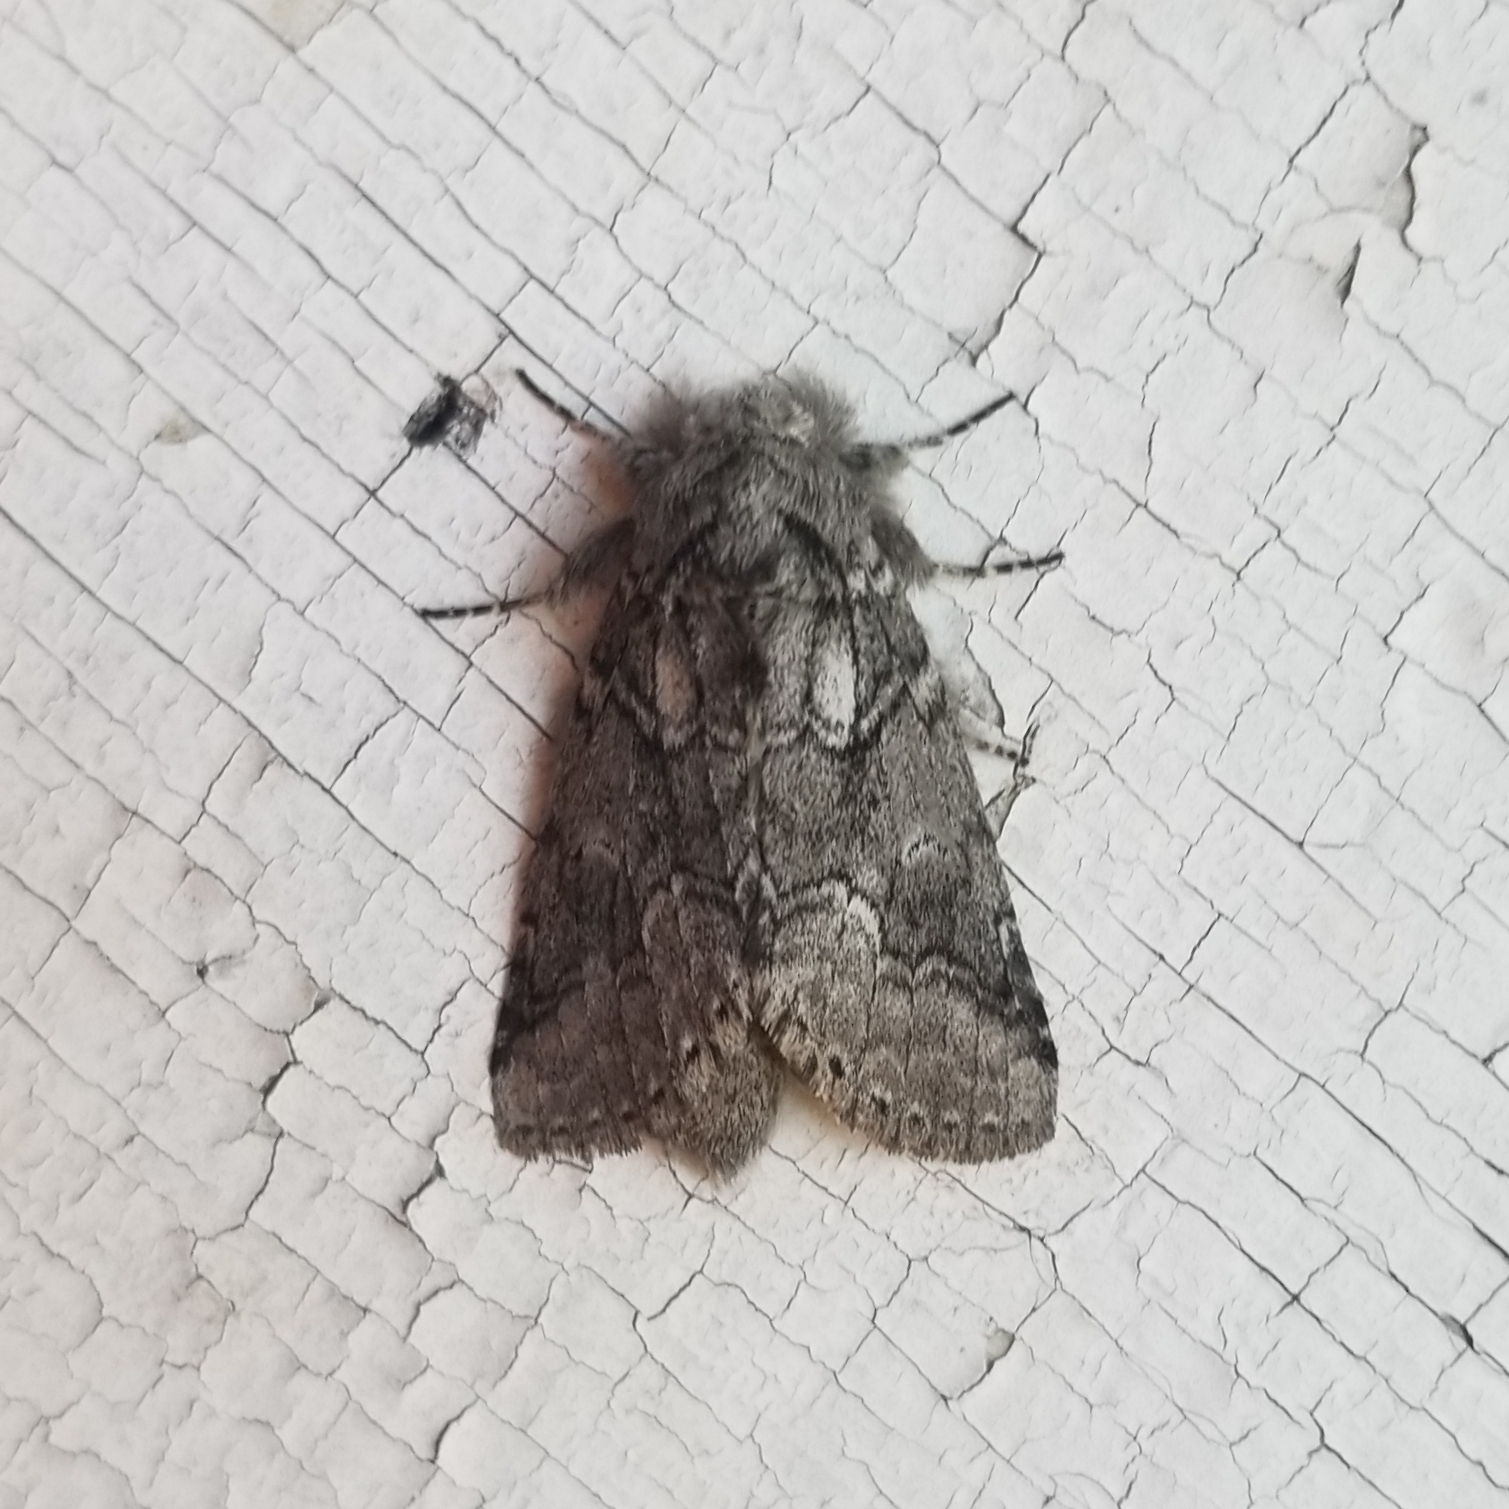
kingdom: Animalia
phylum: Arthropoda
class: Insecta
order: Lepidoptera
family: Notodontidae
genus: Lochmaeus
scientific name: Lochmaeus bilineata
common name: Double-lined prominent
